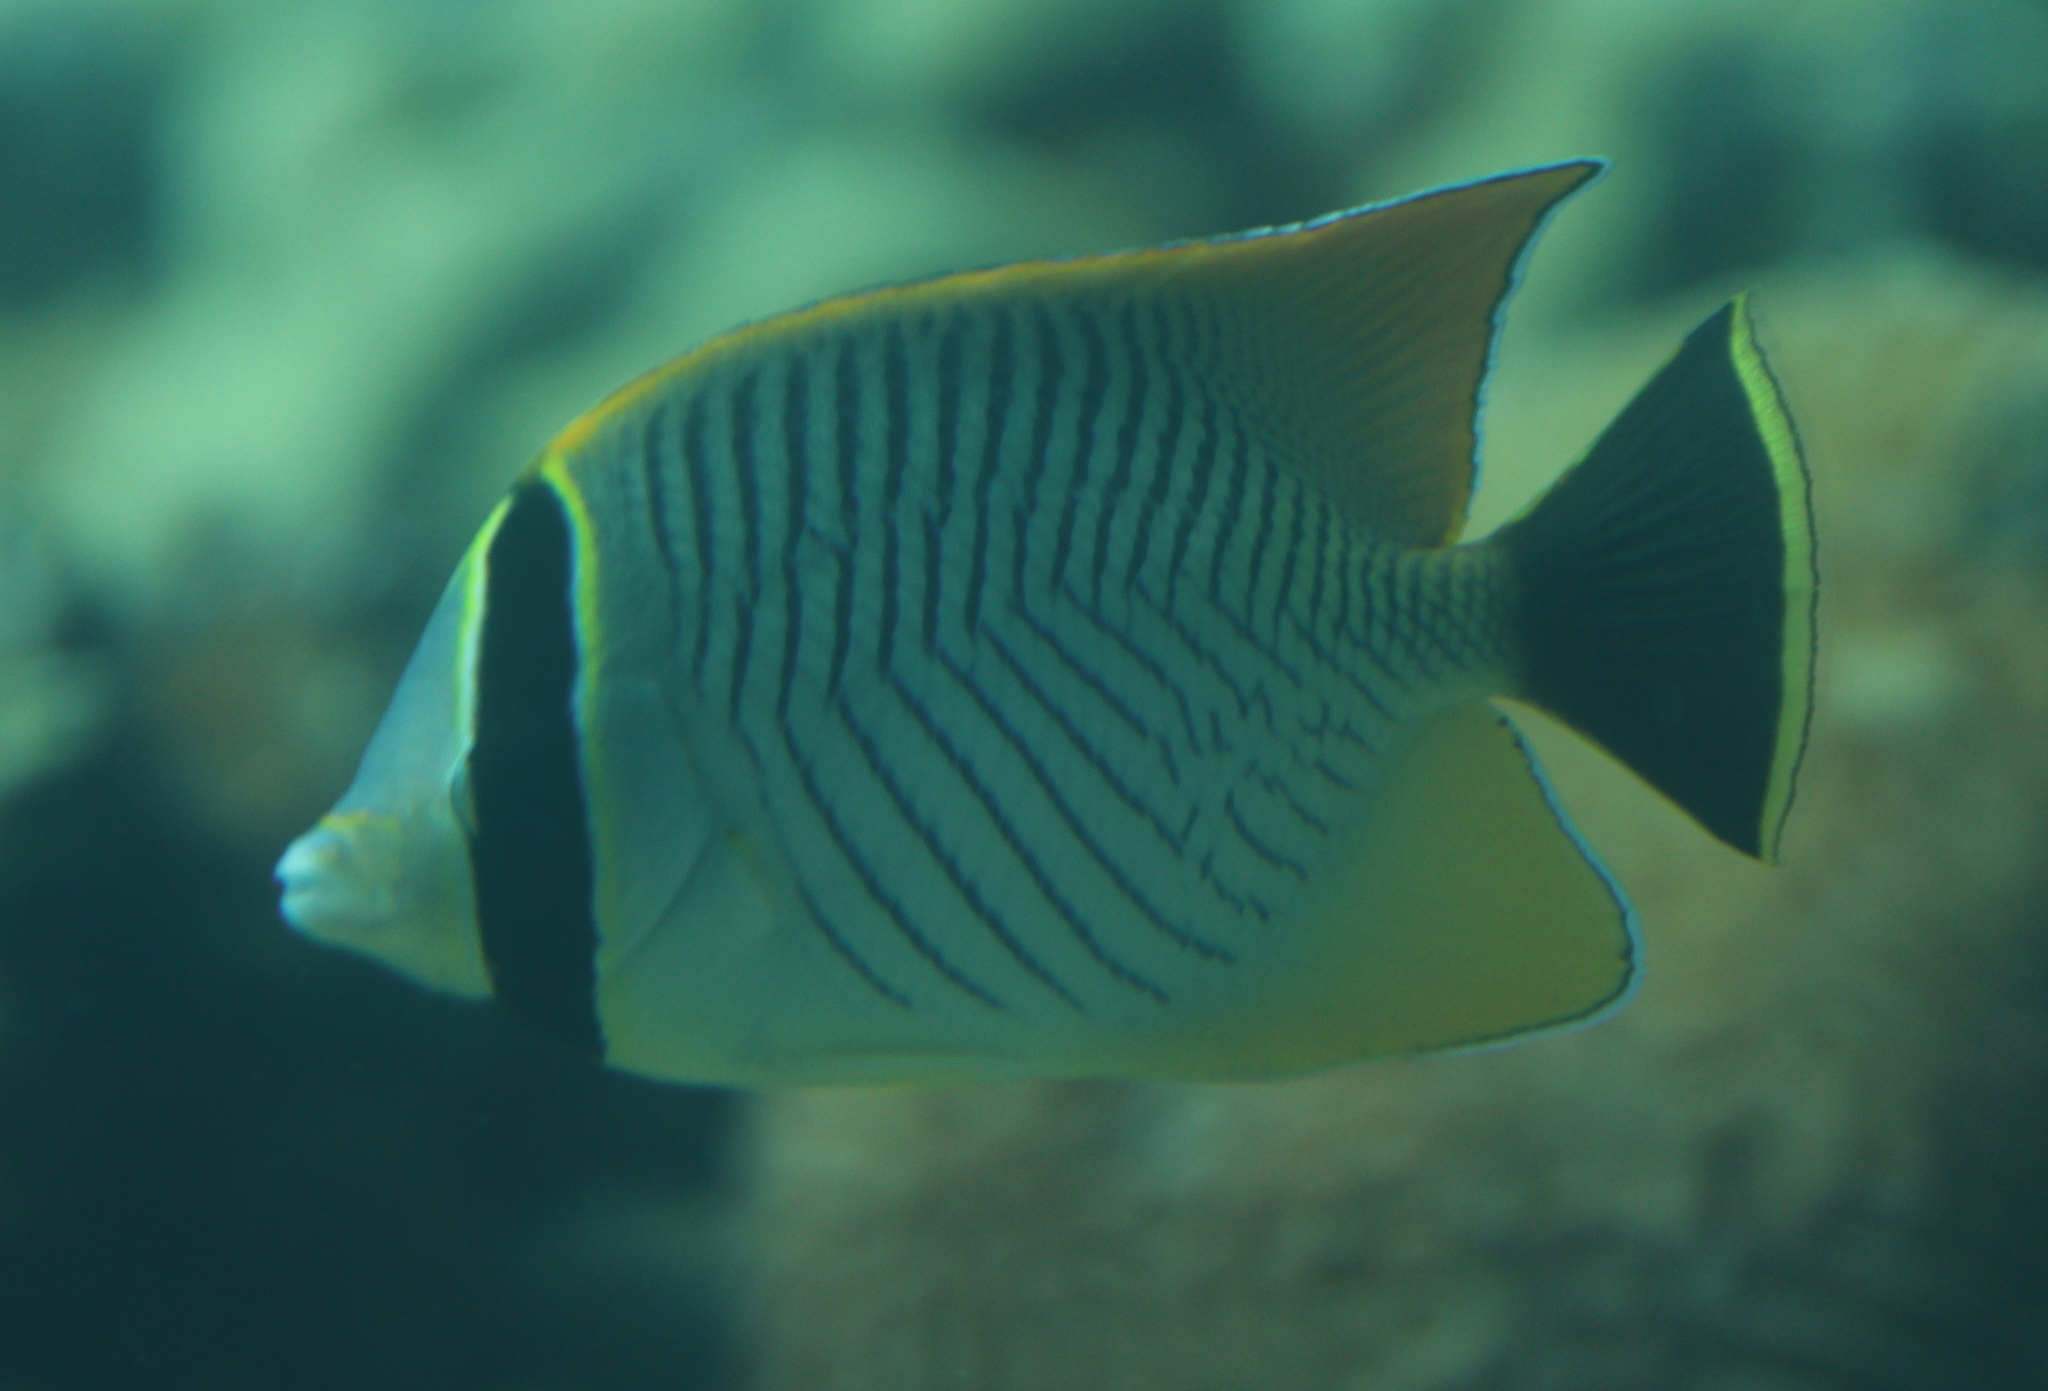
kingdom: Animalia
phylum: Chordata
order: Perciformes
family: Chaetodontidae
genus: Chaetodon
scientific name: Chaetodon trifascialis
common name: Chevroned butterflyfish
